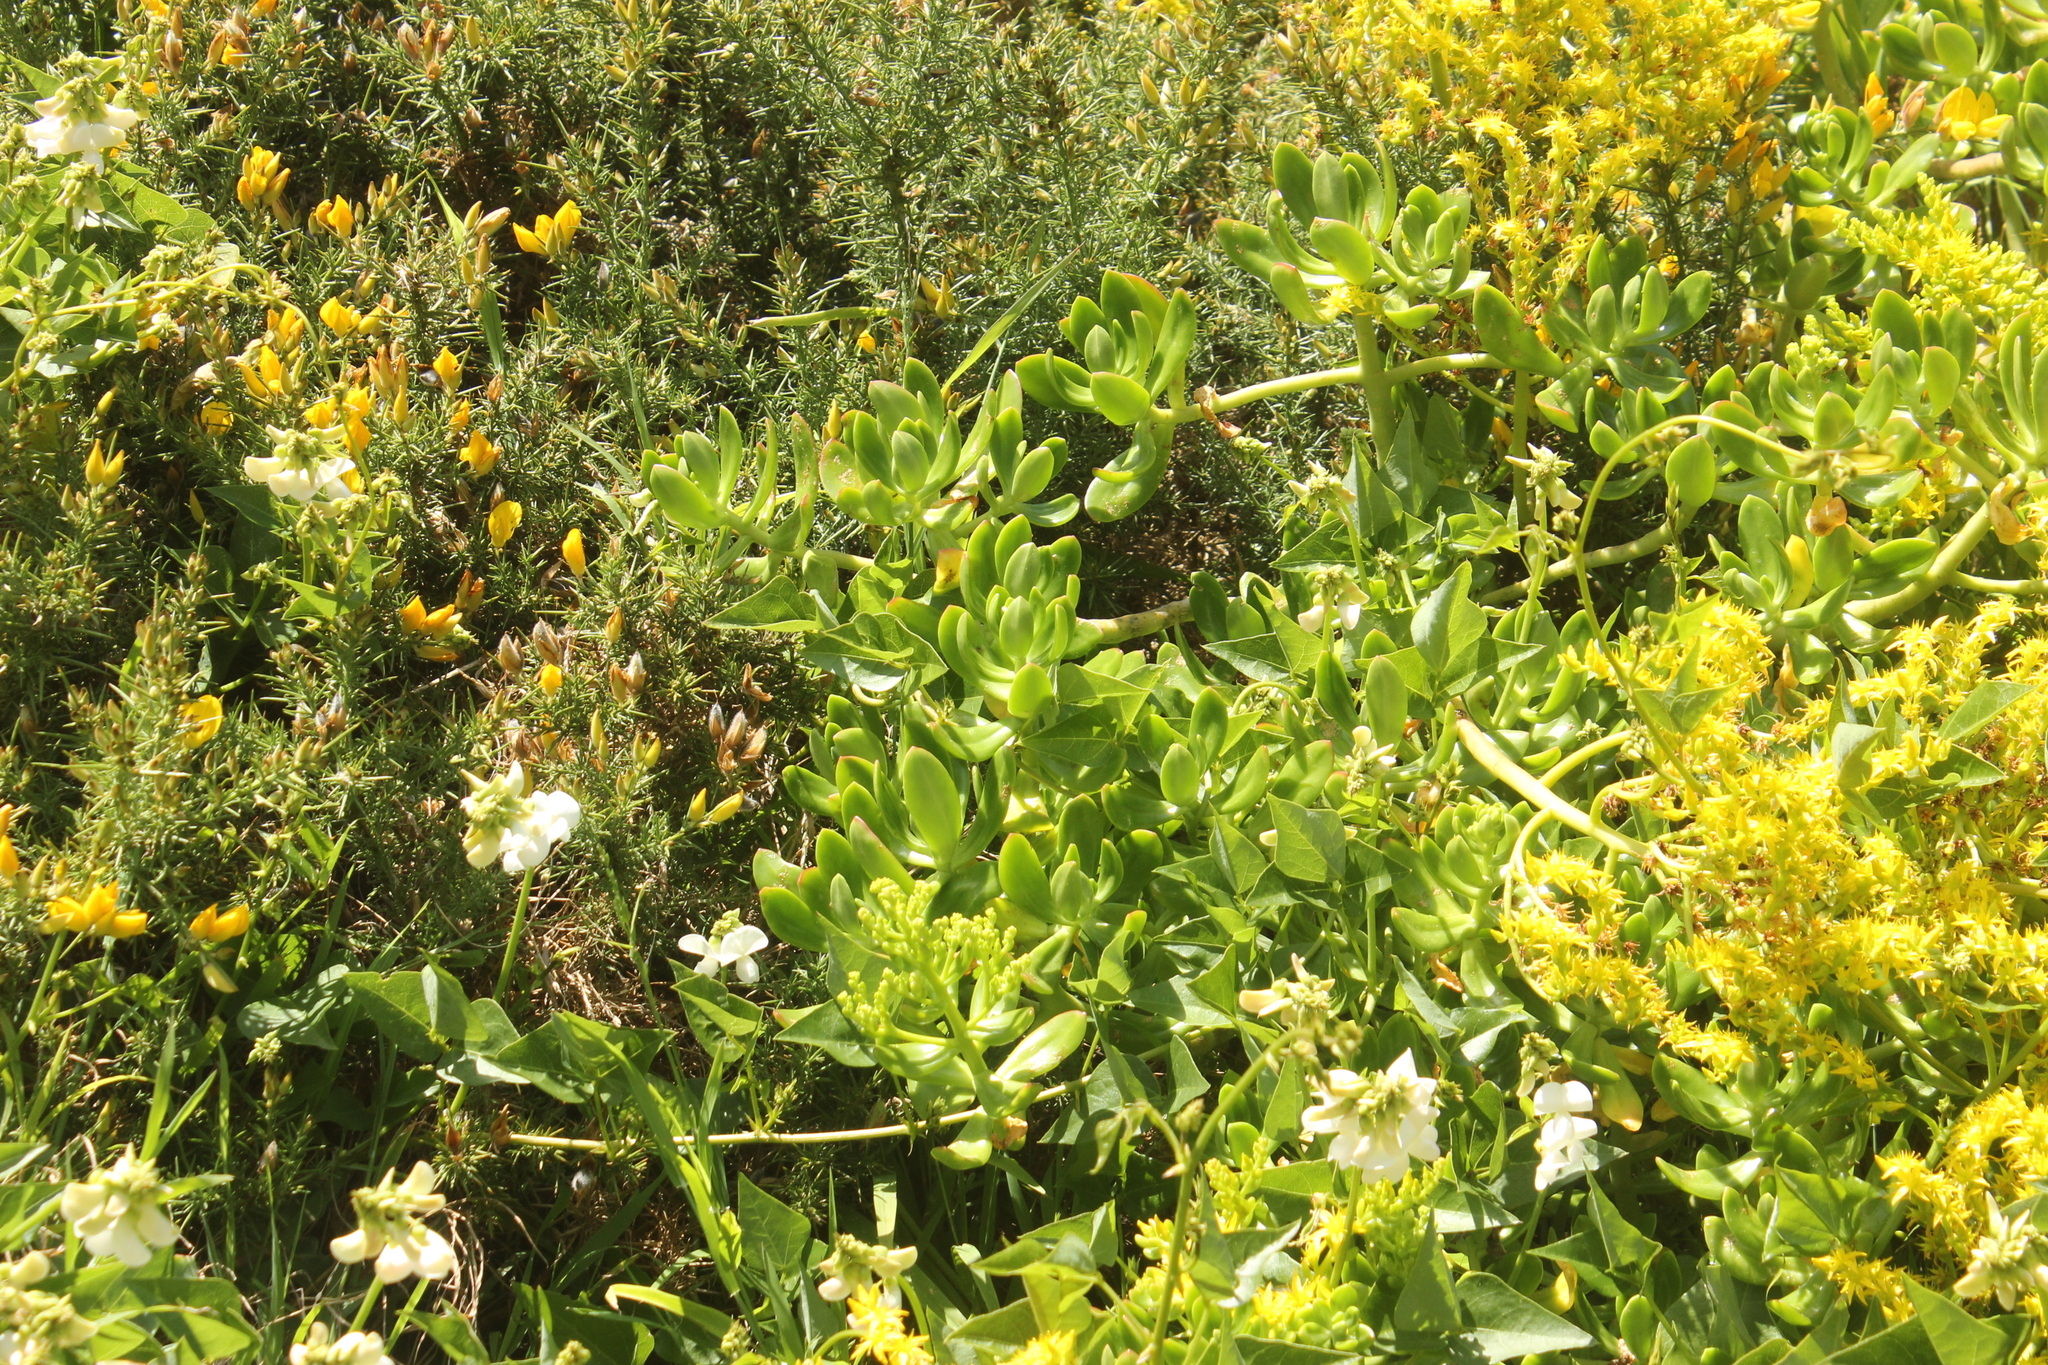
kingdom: Plantae
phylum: Tracheophyta
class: Magnoliopsida
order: Saxifragales
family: Crassulaceae
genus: Sedum
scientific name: Sedum praealtum
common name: Greater mexican-stonecrop
